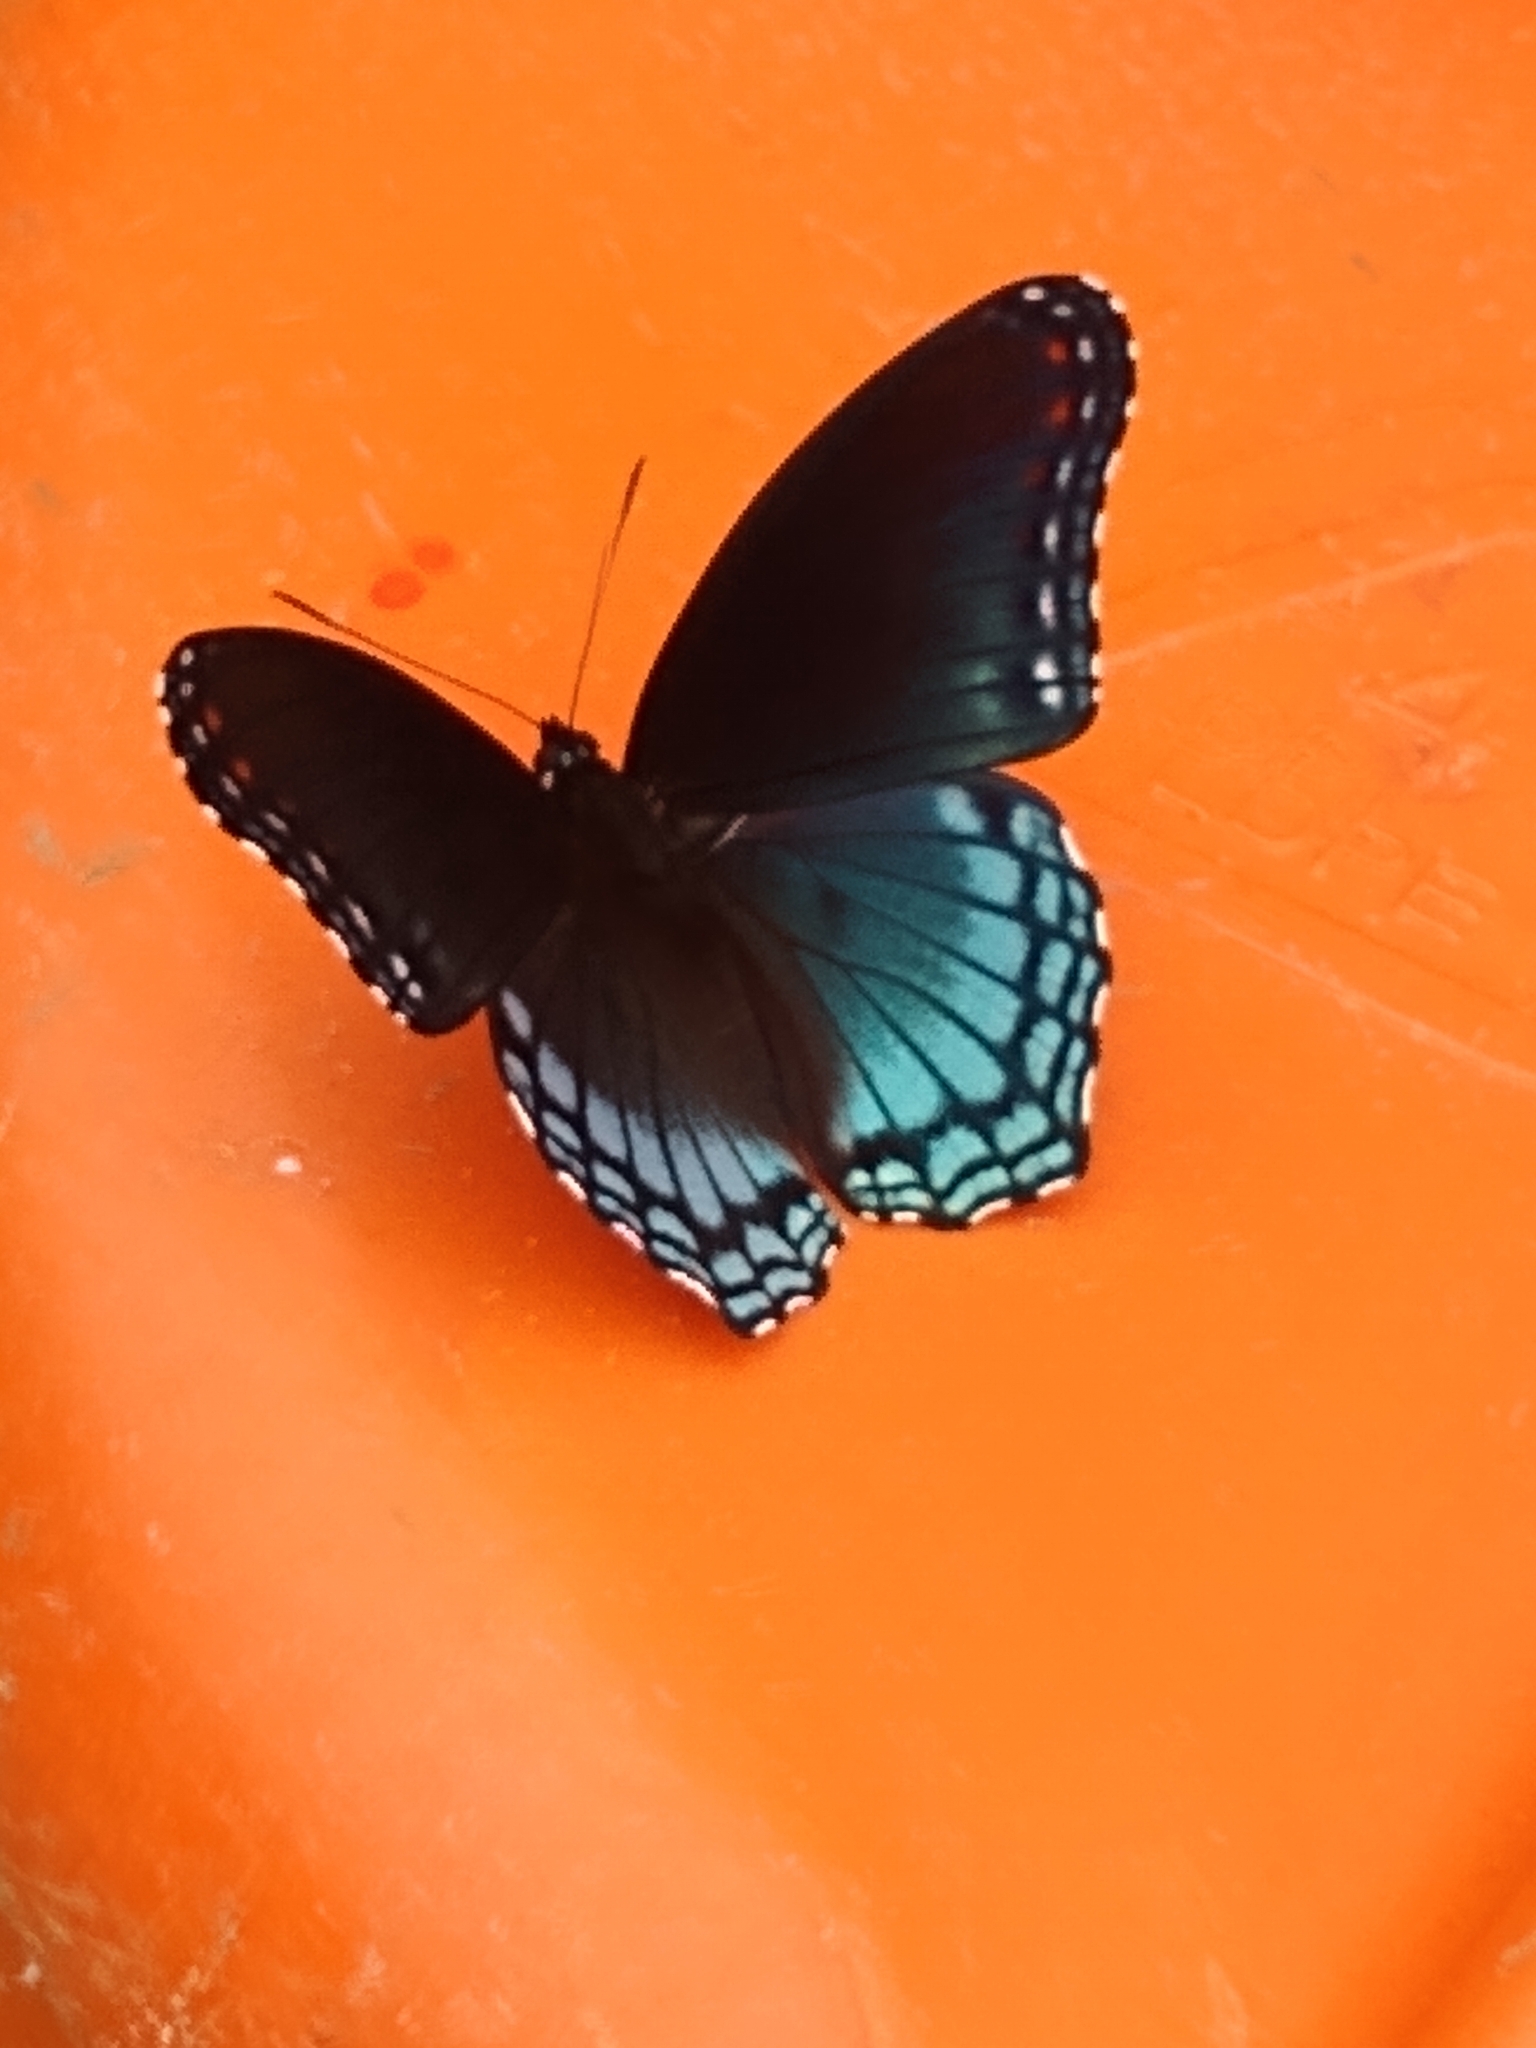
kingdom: Animalia
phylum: Arthropoda
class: Insecta
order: Lepidoptera
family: Nymphalidae
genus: Limenitis
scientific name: Limenitis arthemis
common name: Red-spotted admiral
